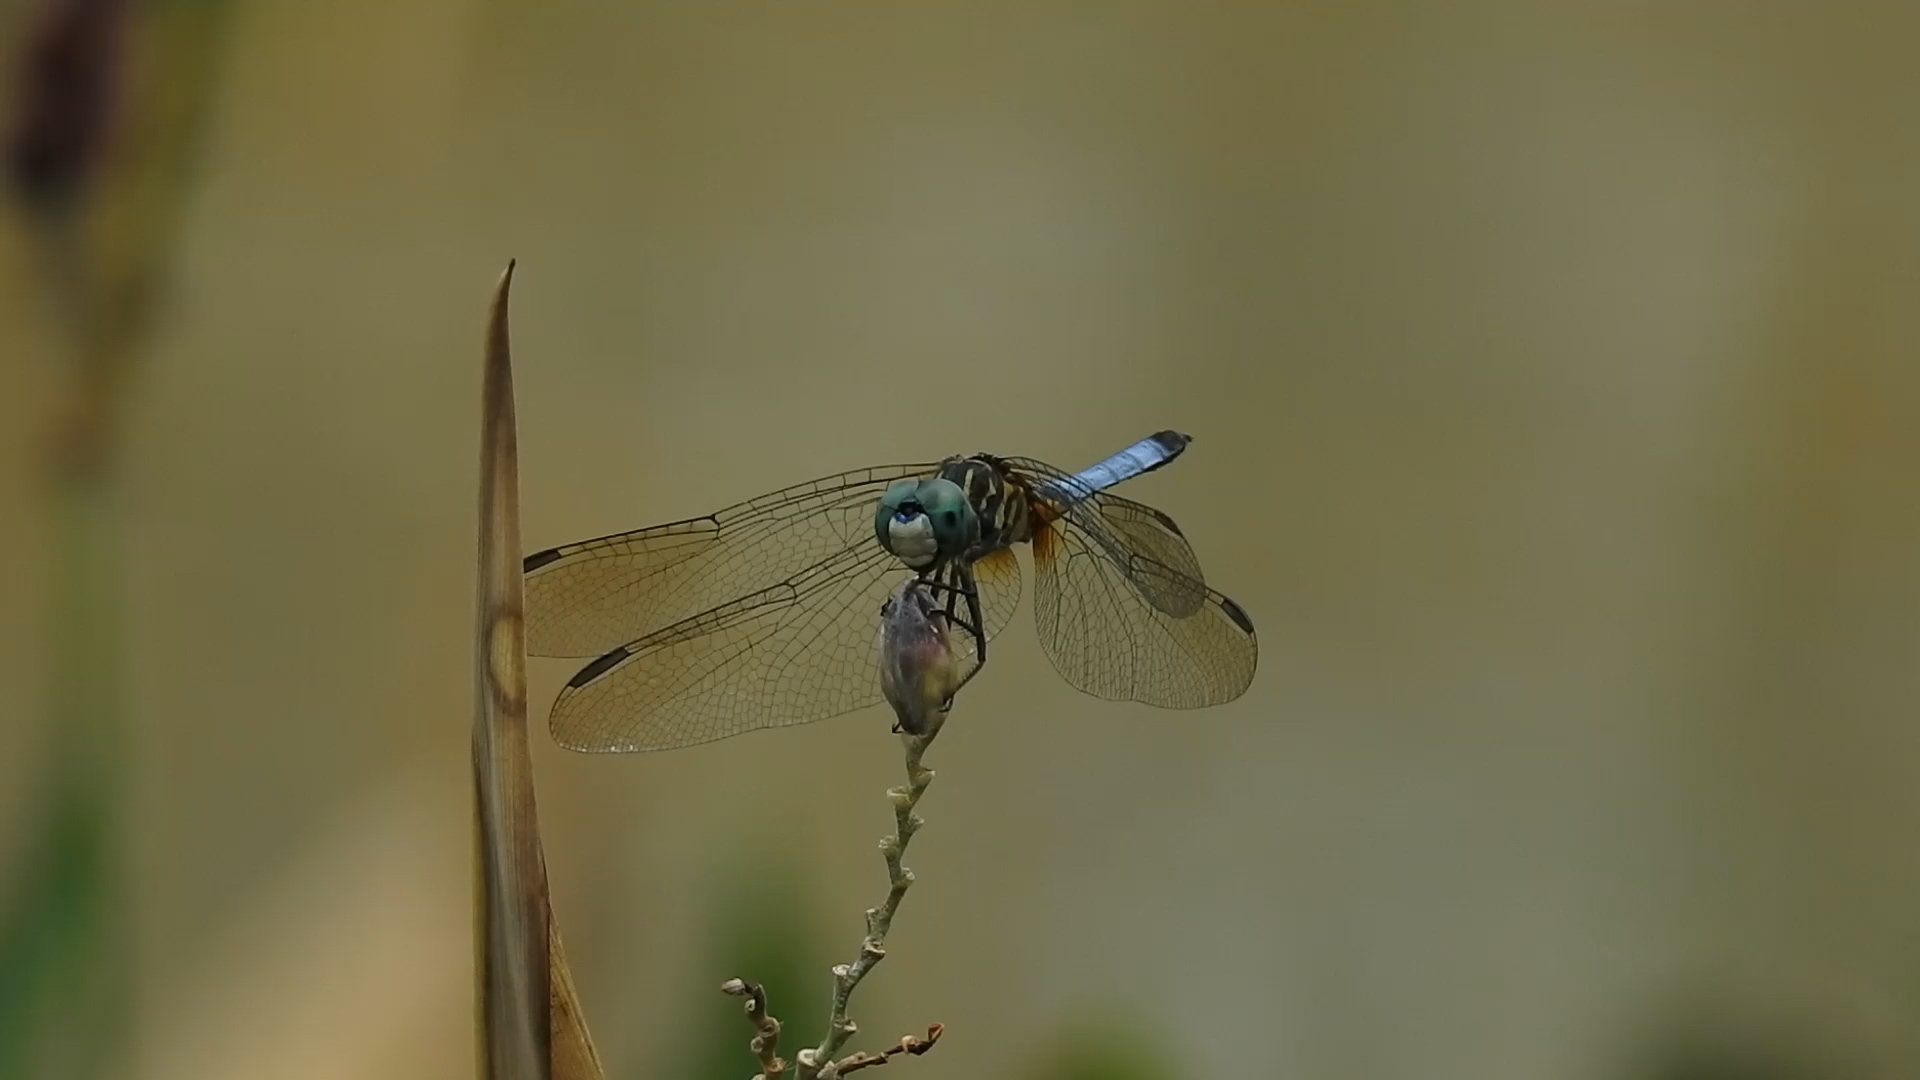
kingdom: Animalia
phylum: Arthropoda
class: Insecta
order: Odonata
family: Libellulidae
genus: Pachydiplax
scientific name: Pachydiplax longipennis
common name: Blue dasher
